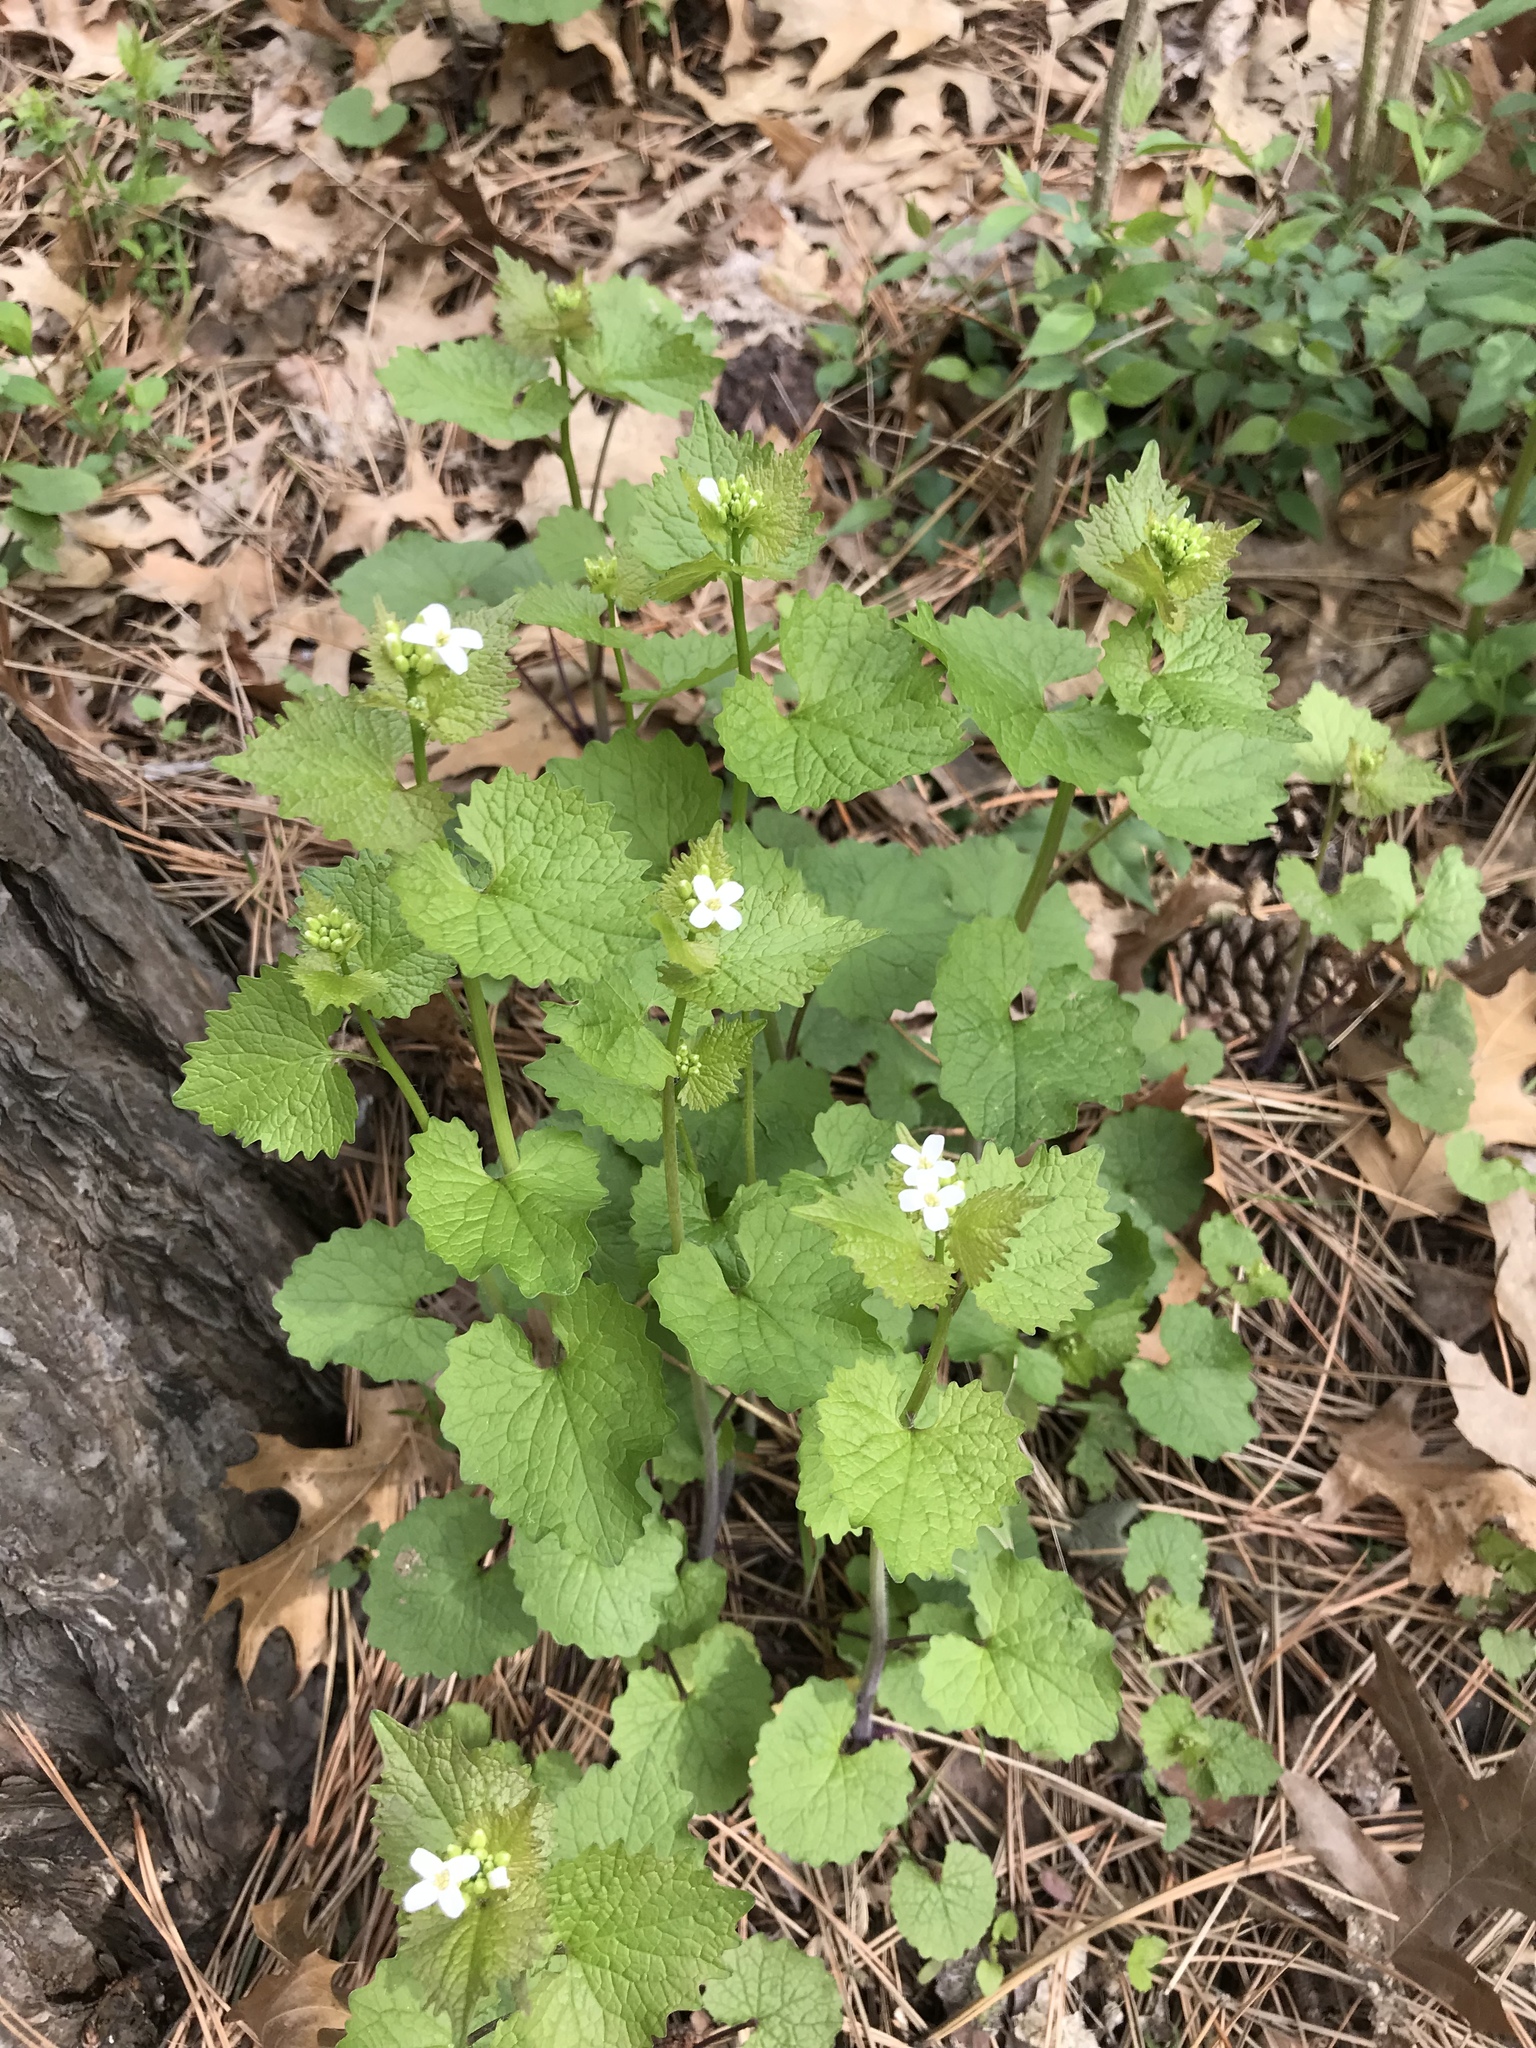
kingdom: Plantae
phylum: Tracheophyta
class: Magnoliopsida
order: Brassicales
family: Brassicaceae
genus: Alliaria
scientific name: Alliaria petiolata
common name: Garlic mustard
